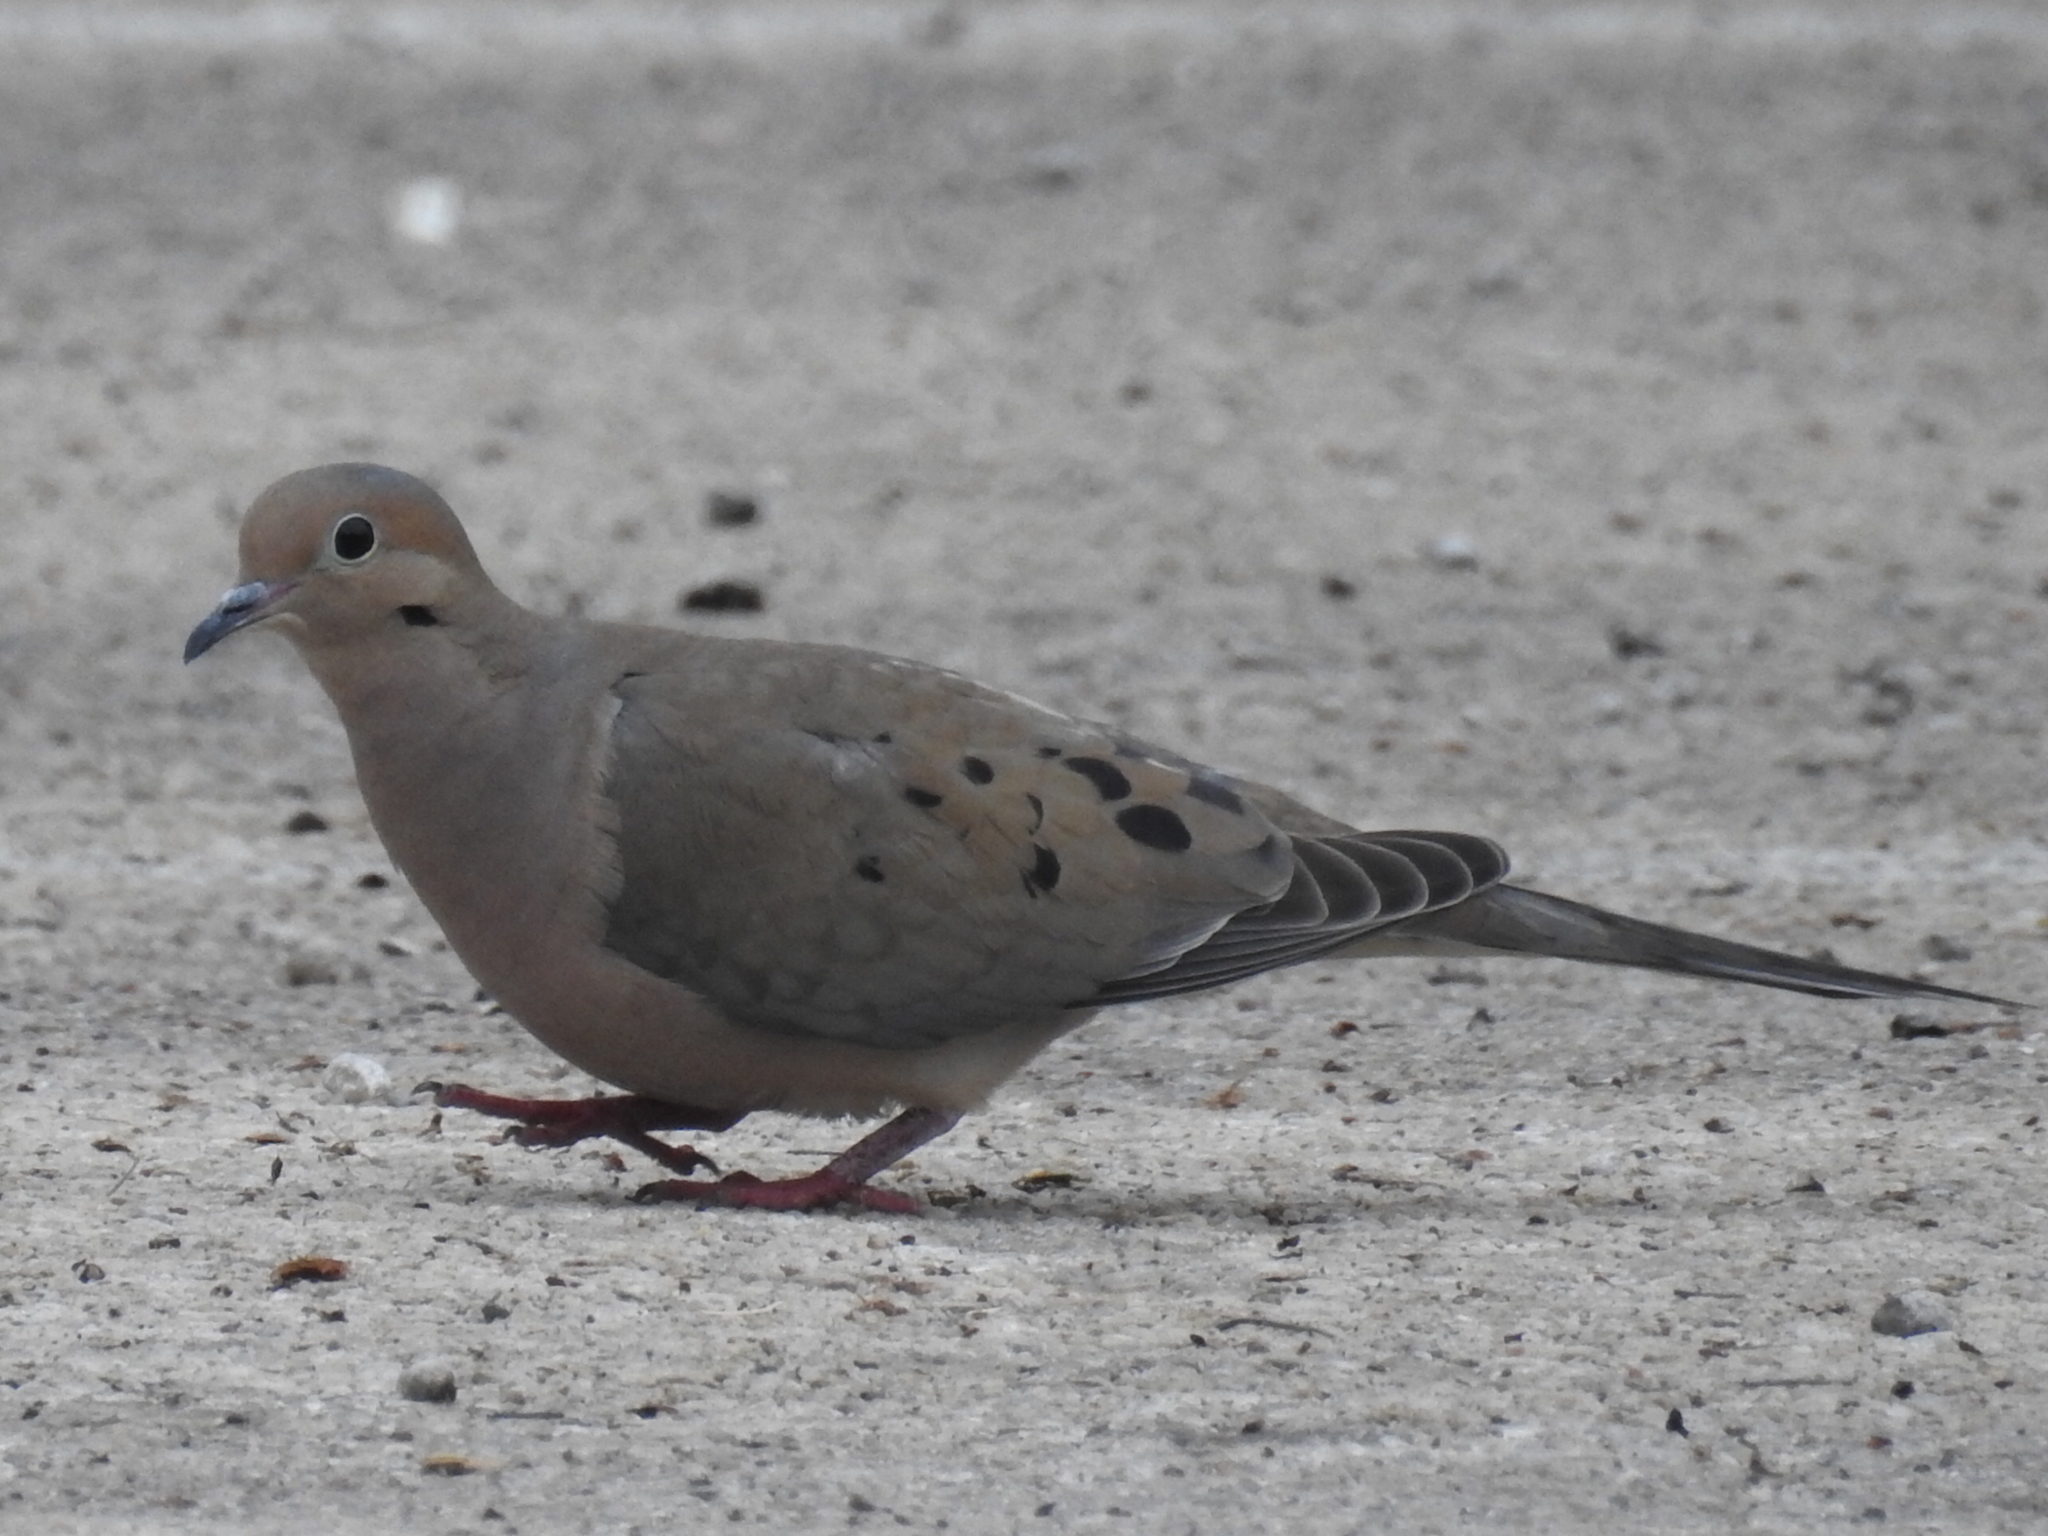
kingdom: Animalia
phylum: Chordata
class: Aves
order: Columbiformes
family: Columbidae
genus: Zenaida
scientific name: Zenaida macroura
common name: Mourning dove
